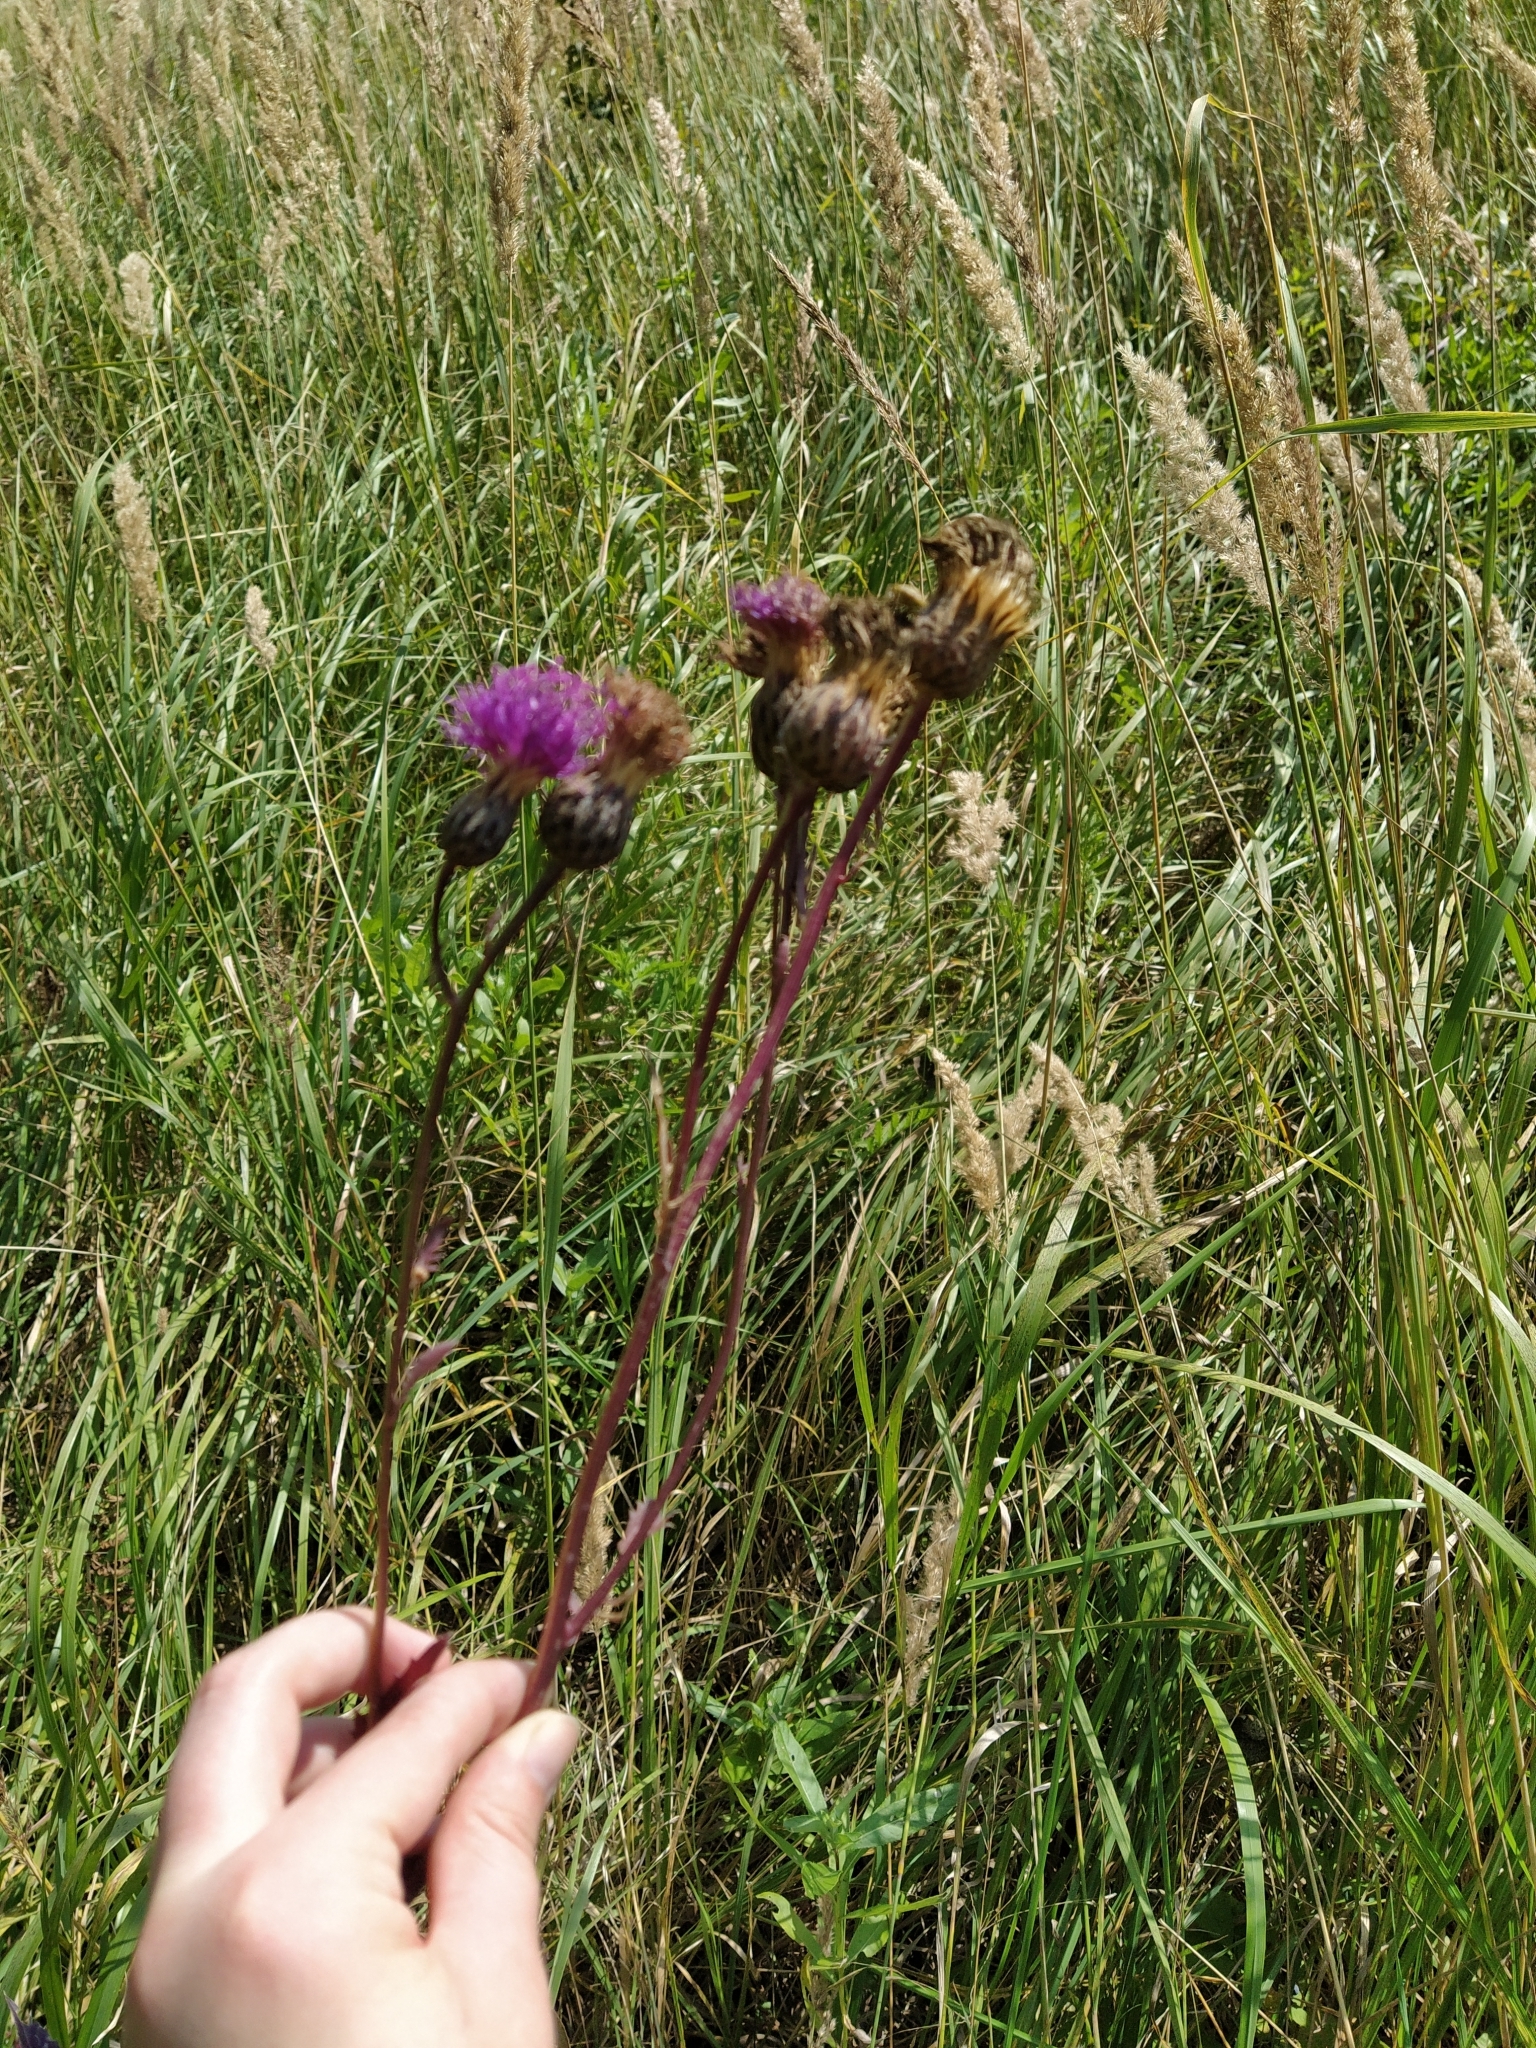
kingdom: Plantae
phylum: Tracheophyta
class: Magnoliopsida
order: Asterales
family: Asteraceae
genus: Serratula
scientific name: Serratula coronata
